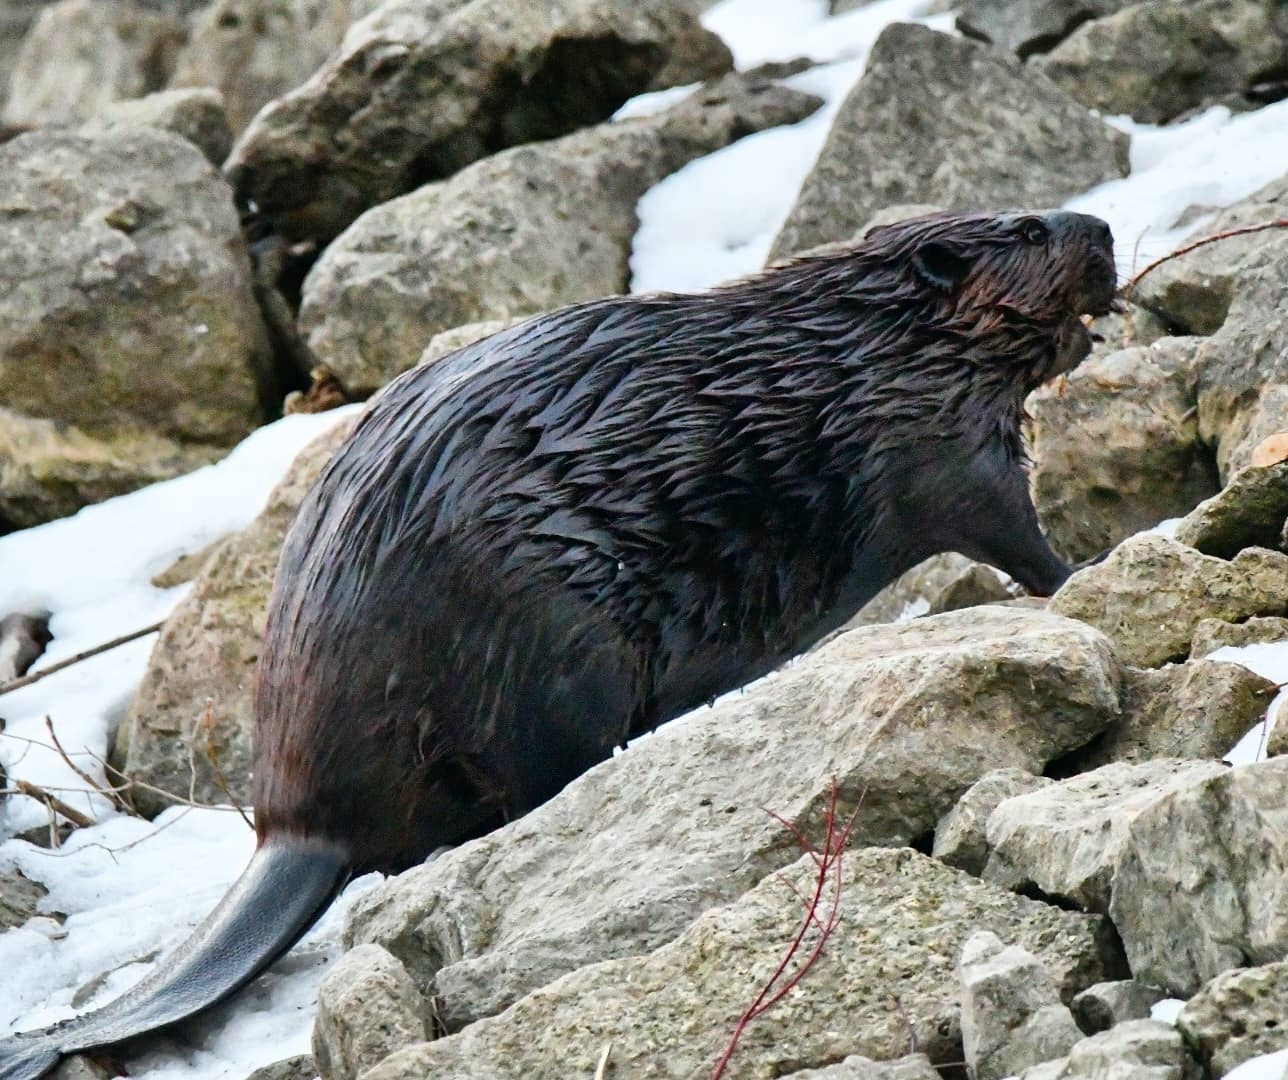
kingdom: Animalia
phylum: Chordata
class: Mammalia
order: Rodentia
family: Castoridae
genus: Castor
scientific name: Castor canadensis
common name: American beaver
